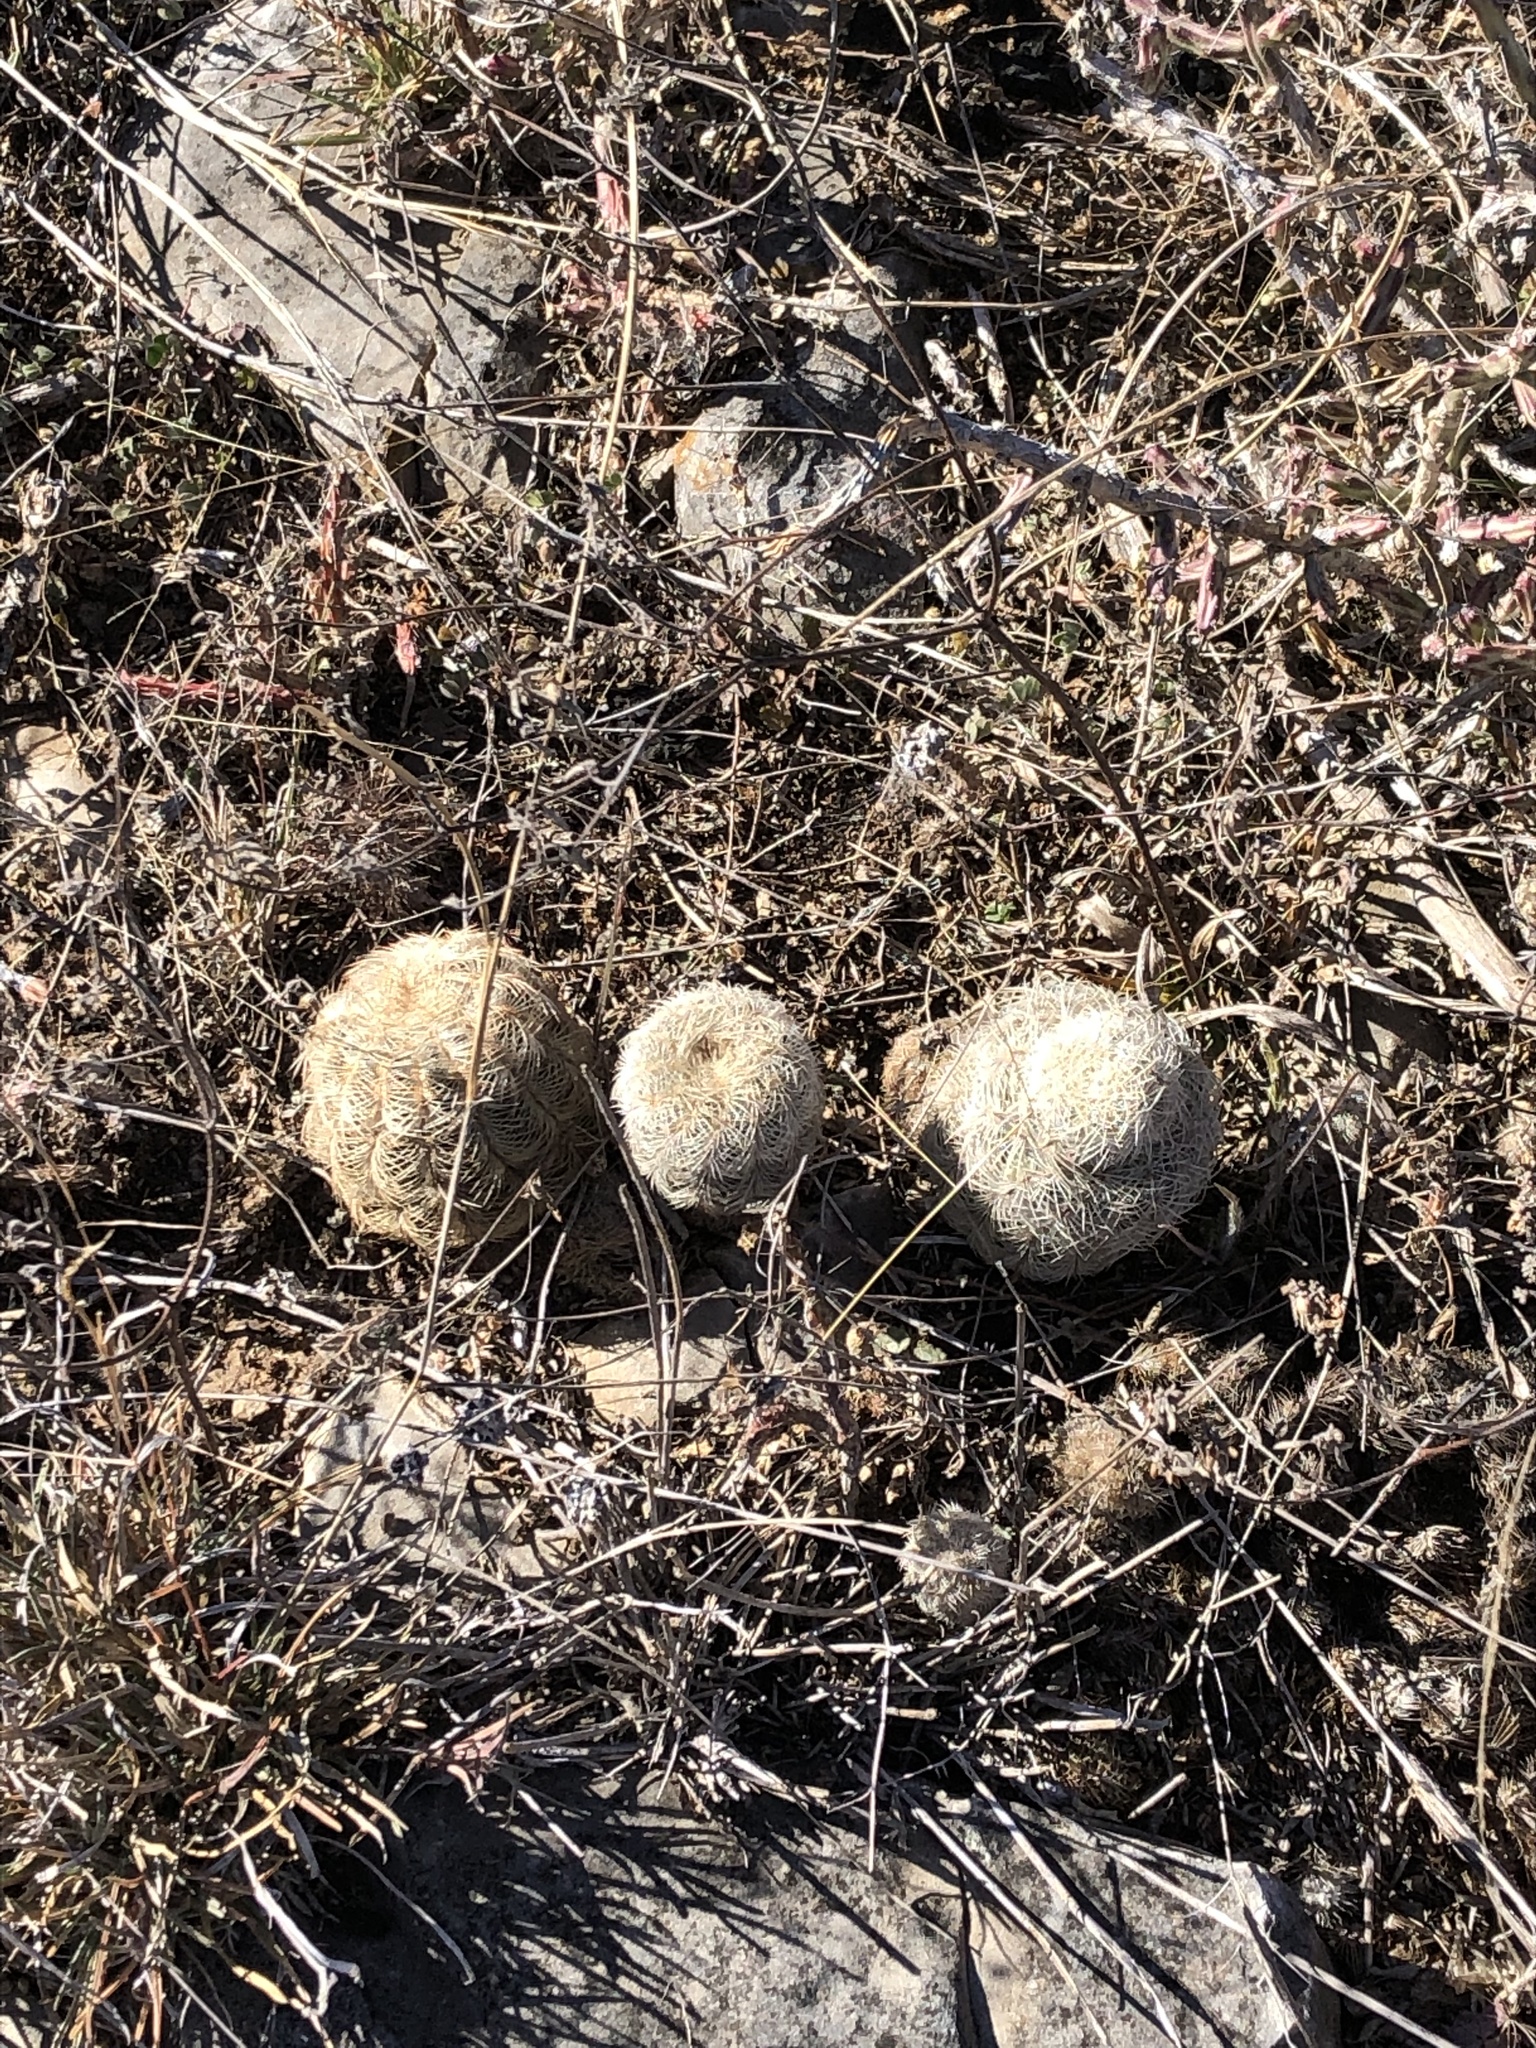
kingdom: Plantae
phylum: Tracheophyta
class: Magnoliopsida
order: Caryophyllales
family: Cactaceae
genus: Echinocereus
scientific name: Echinocereus reichenbachii
